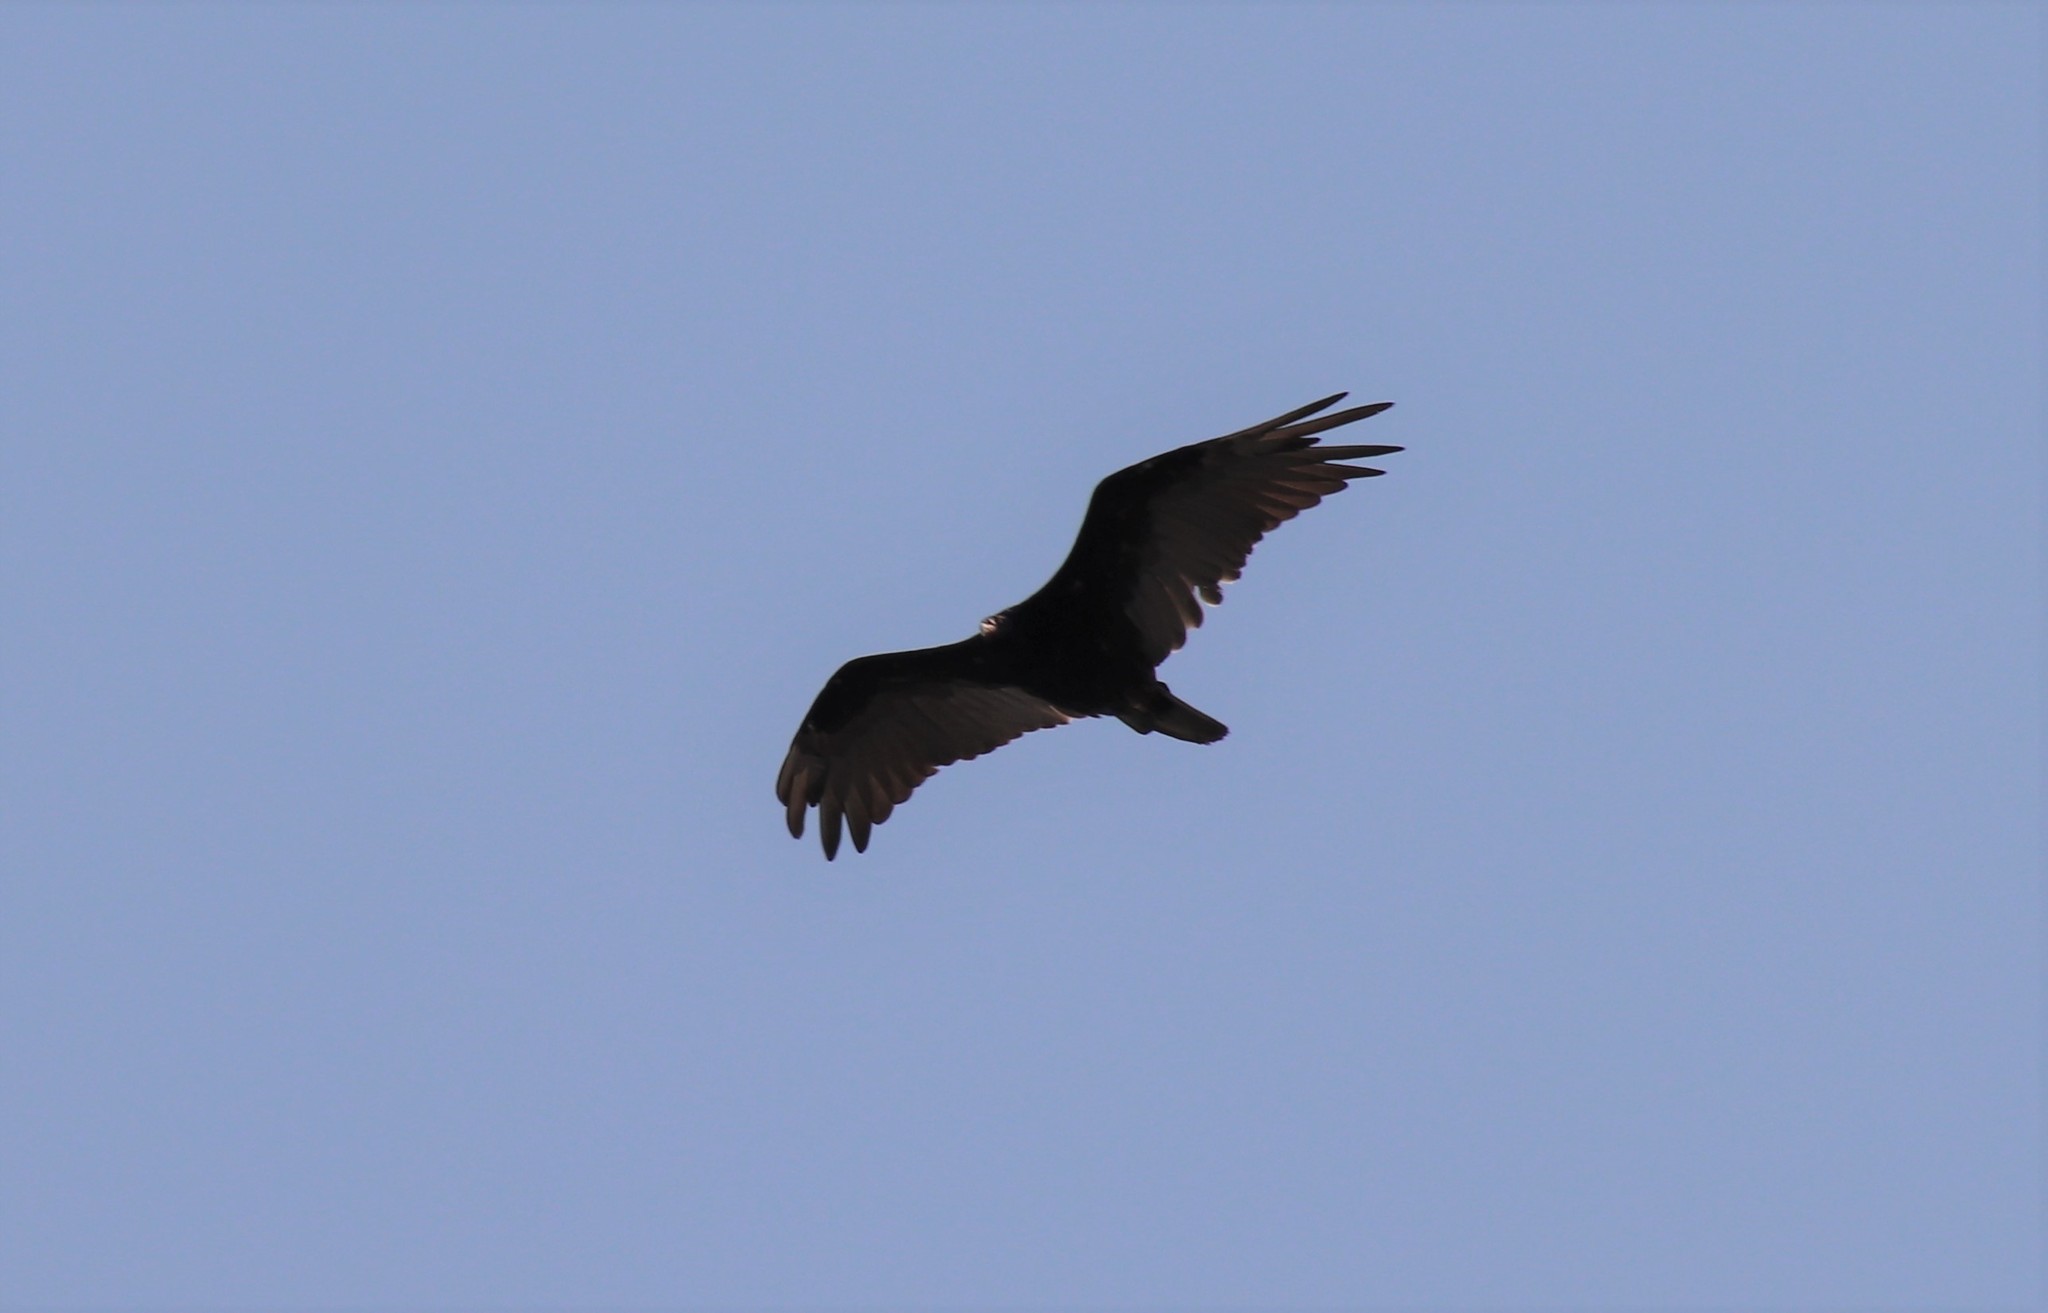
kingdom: Animalia
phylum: Chordata
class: Aves
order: Accipitriformes
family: Cathartidae
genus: Cathartes
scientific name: Cathartes aura
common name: Turkey vulture
